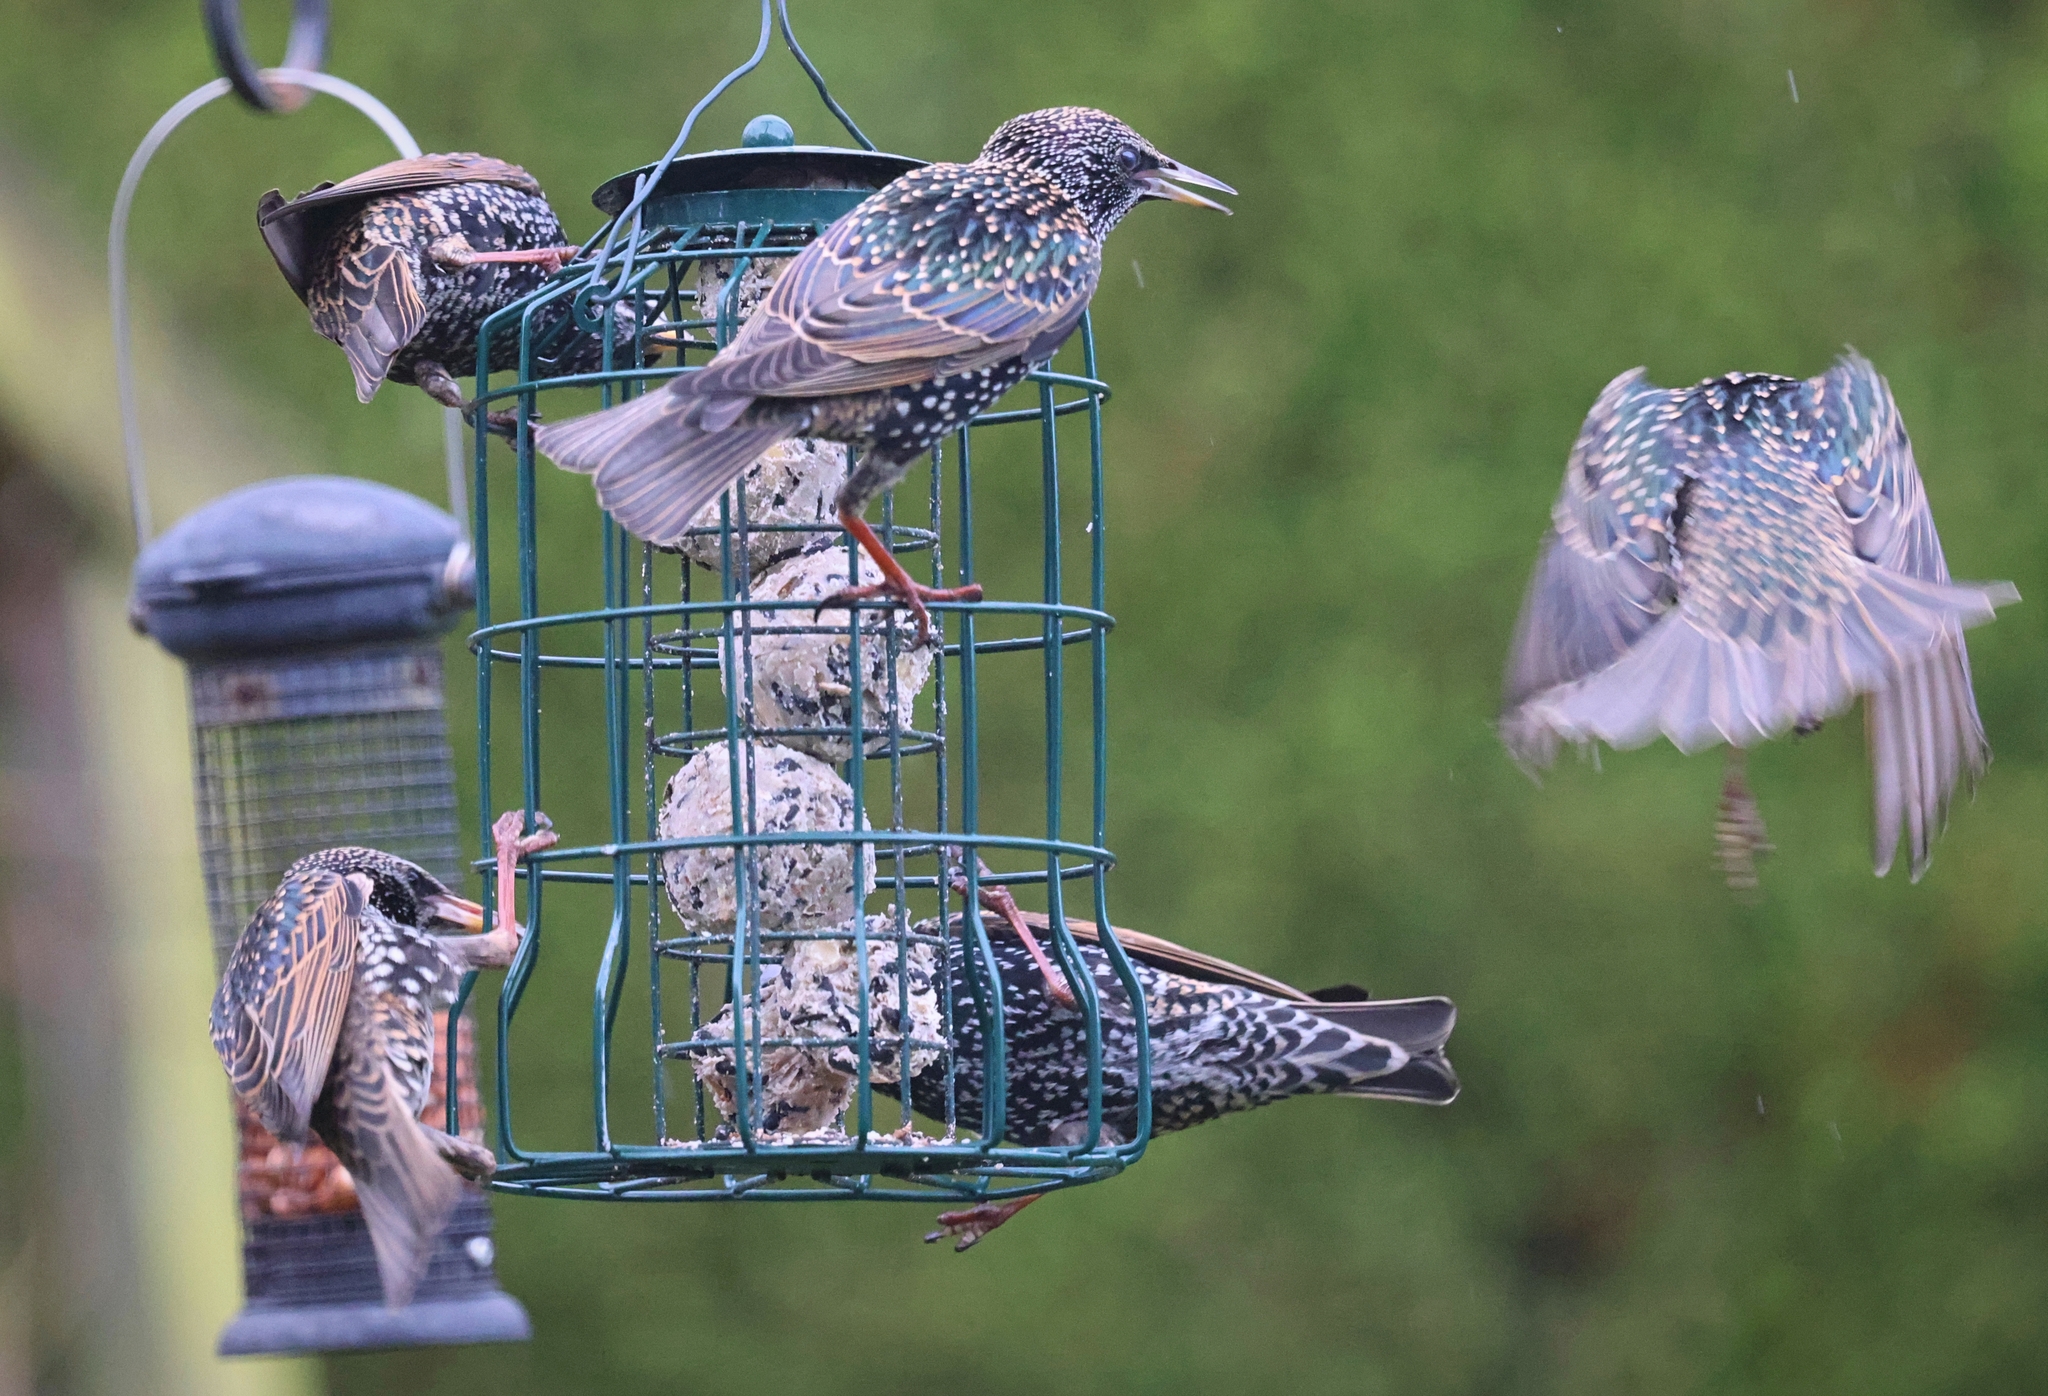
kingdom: Animalia
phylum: Chordata
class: Aves
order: Passeriformes
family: Sturnidae
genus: Sturnus
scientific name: Sturnus vulgaris
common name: Common starling
